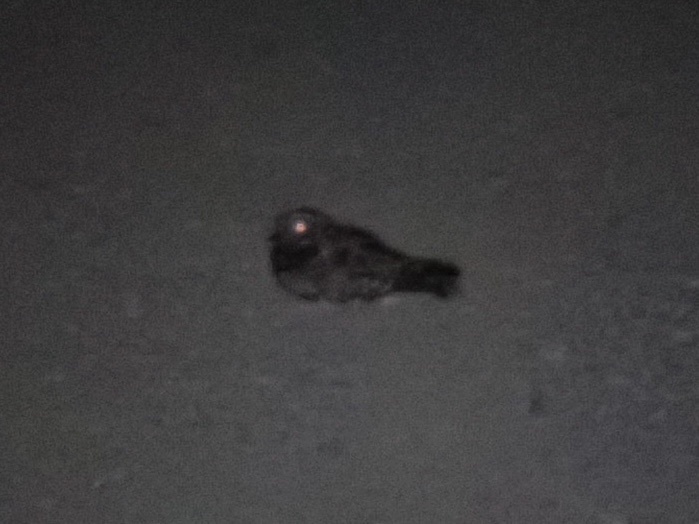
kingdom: Animalia
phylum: Chordata
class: Aves
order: Caprimulgiformes
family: Caprimulgidae
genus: Phalaenoptilus
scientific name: Phalaenoptilus nuttallii
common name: Common poorwill
